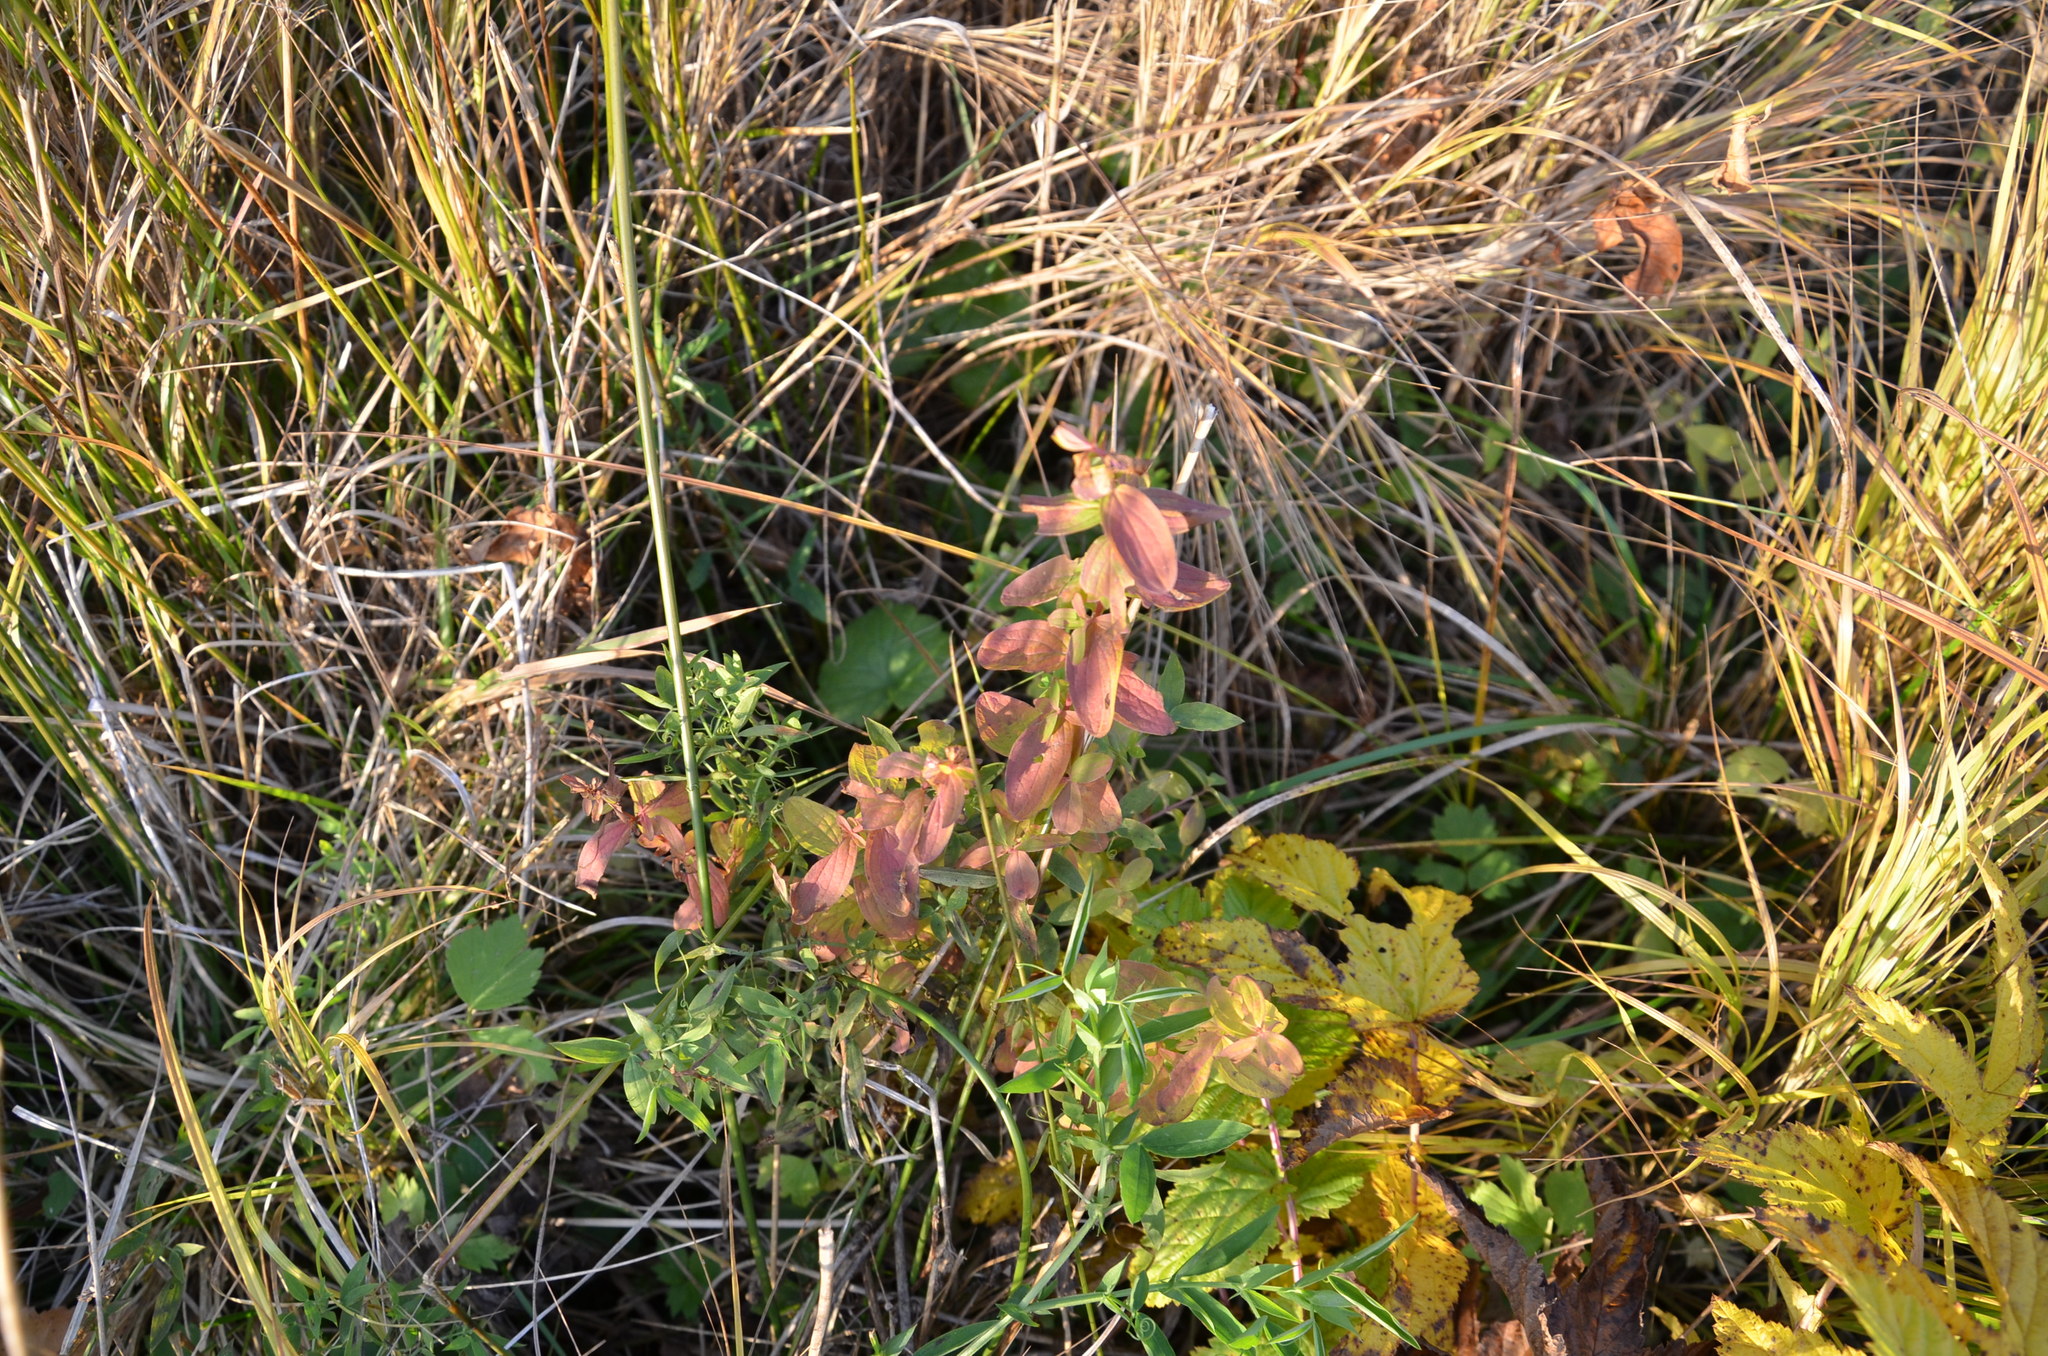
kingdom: Plantae
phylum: Tracheophyta
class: Magnoliopsida
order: Malpighiales
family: Hypericaceae
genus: Hypericum
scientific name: Hypericum maculatum
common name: Imperforate st. john's-wort
